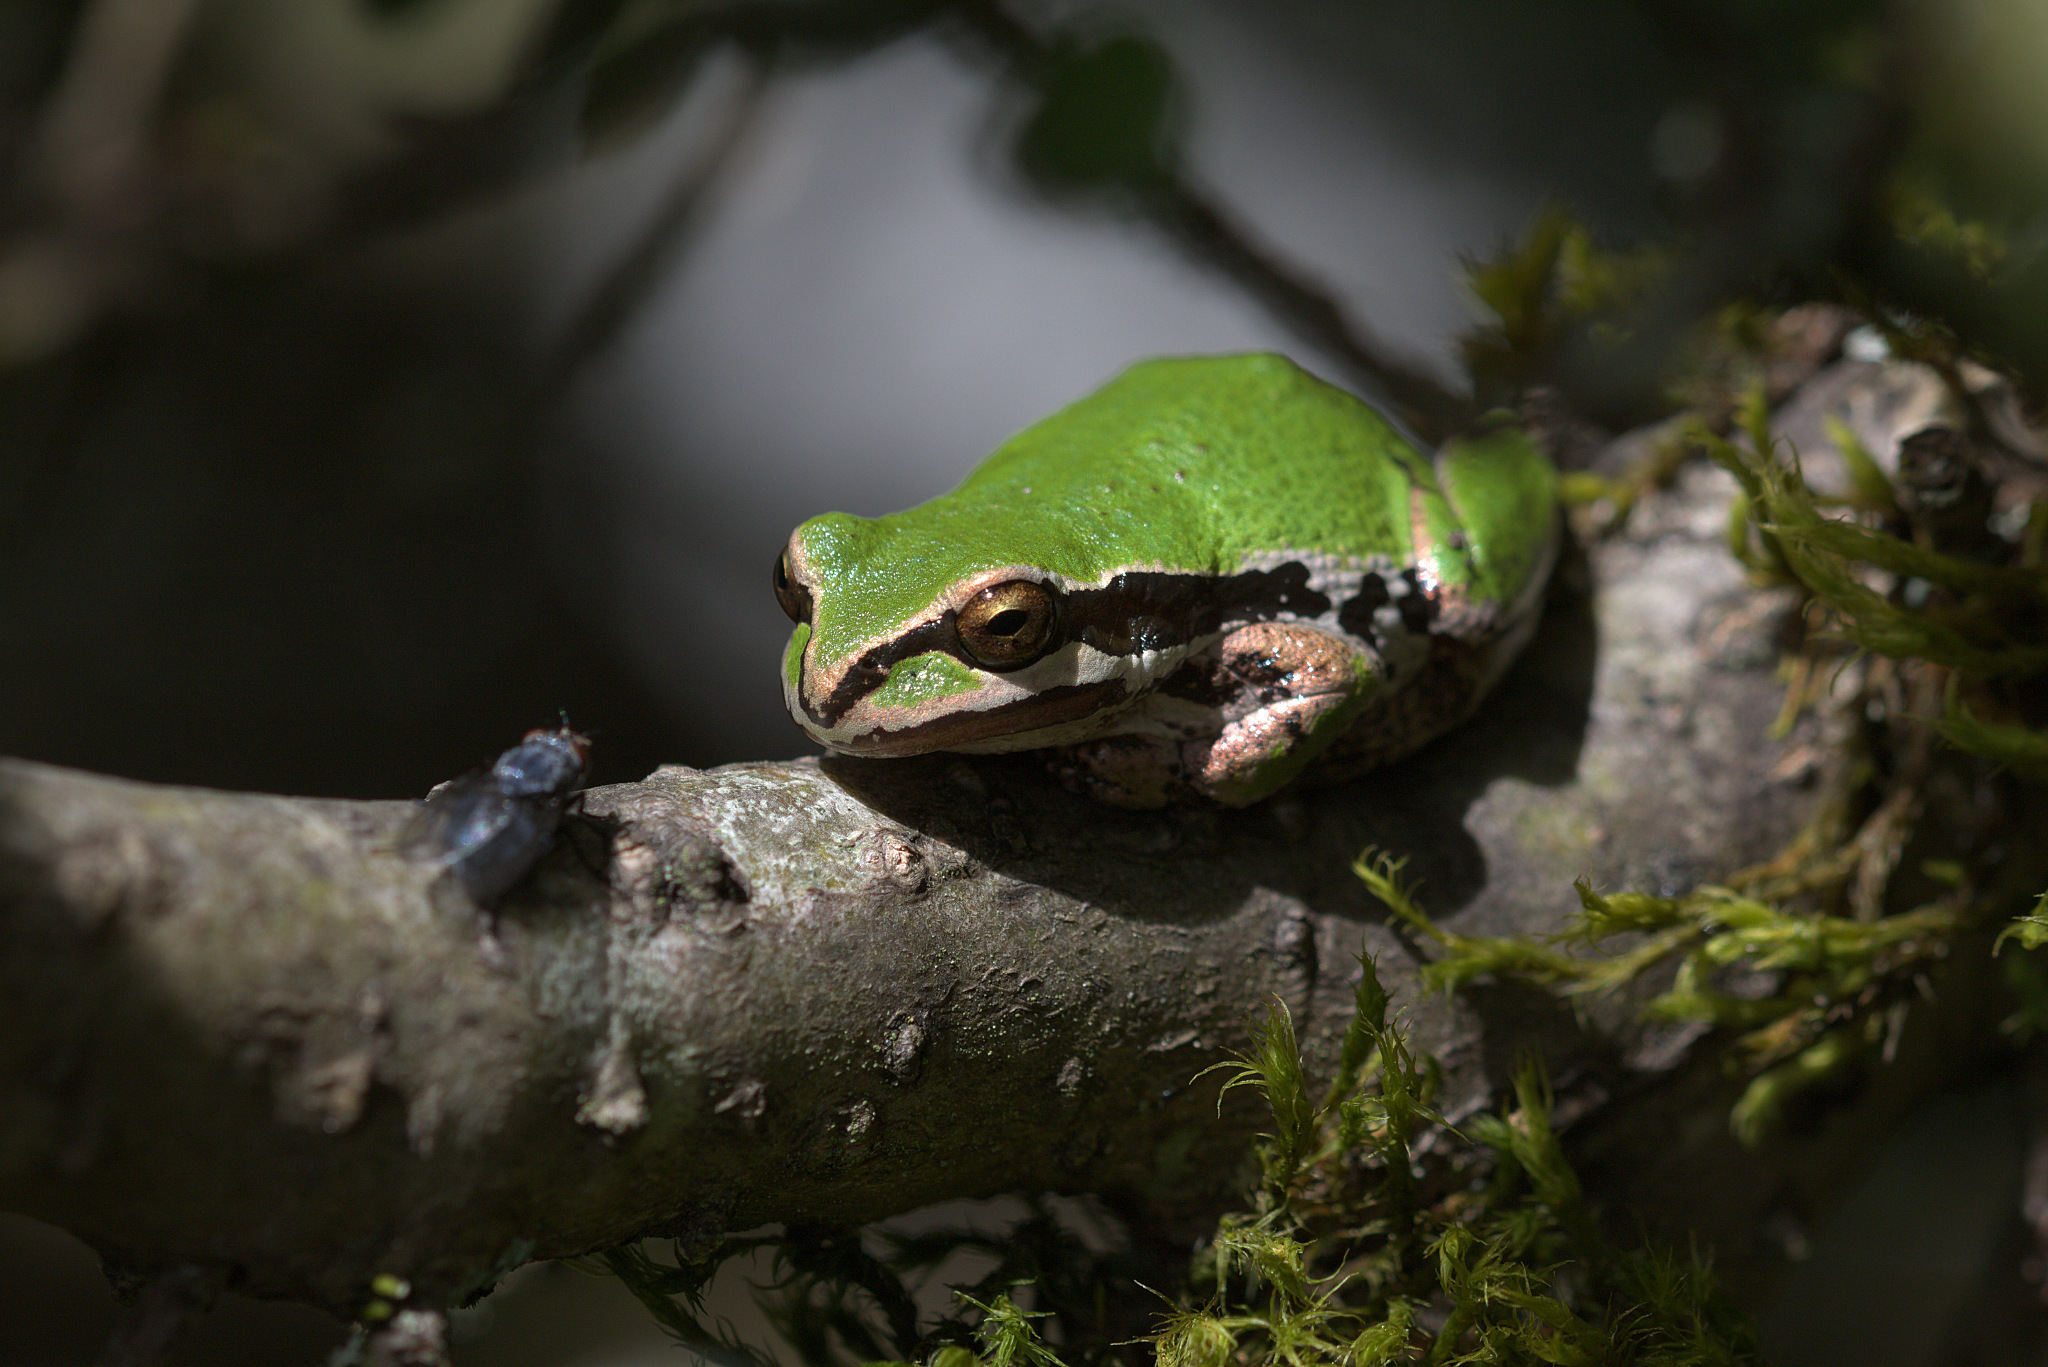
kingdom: Animalia
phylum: Chordata
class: Amphibia
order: Anura
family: Hylidae
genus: Pseudacris
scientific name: Pseudacris regilla
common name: Pacific chorus frog
